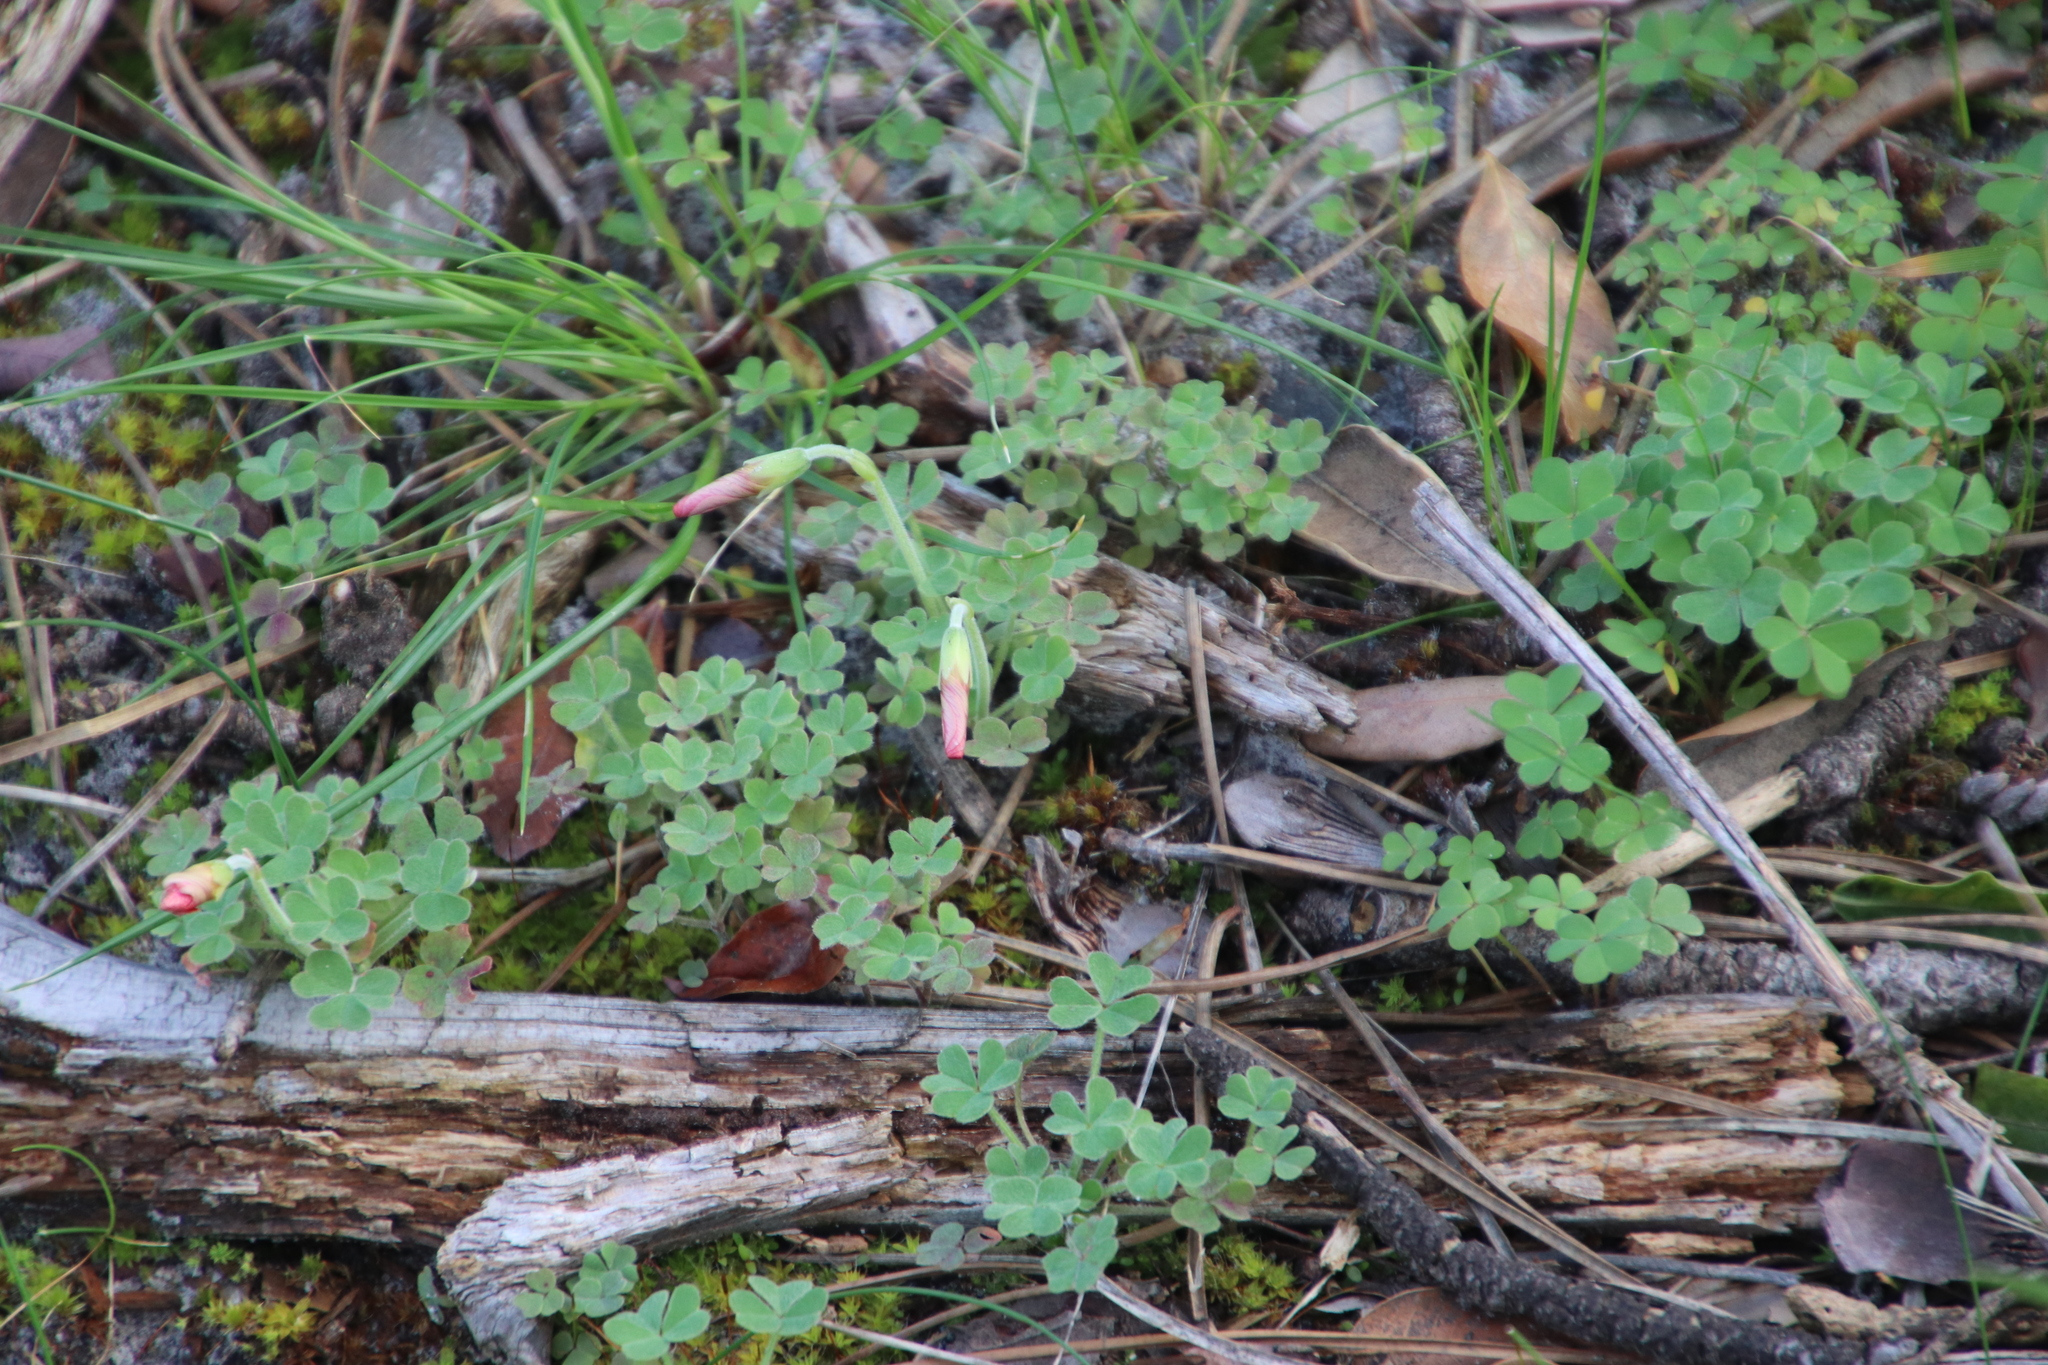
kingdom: Plantae
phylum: Tracheophyta
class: Magnoliopsida
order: Oxalidales
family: Oxalidaceae
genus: Oxalis
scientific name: Oxalis obtusa
